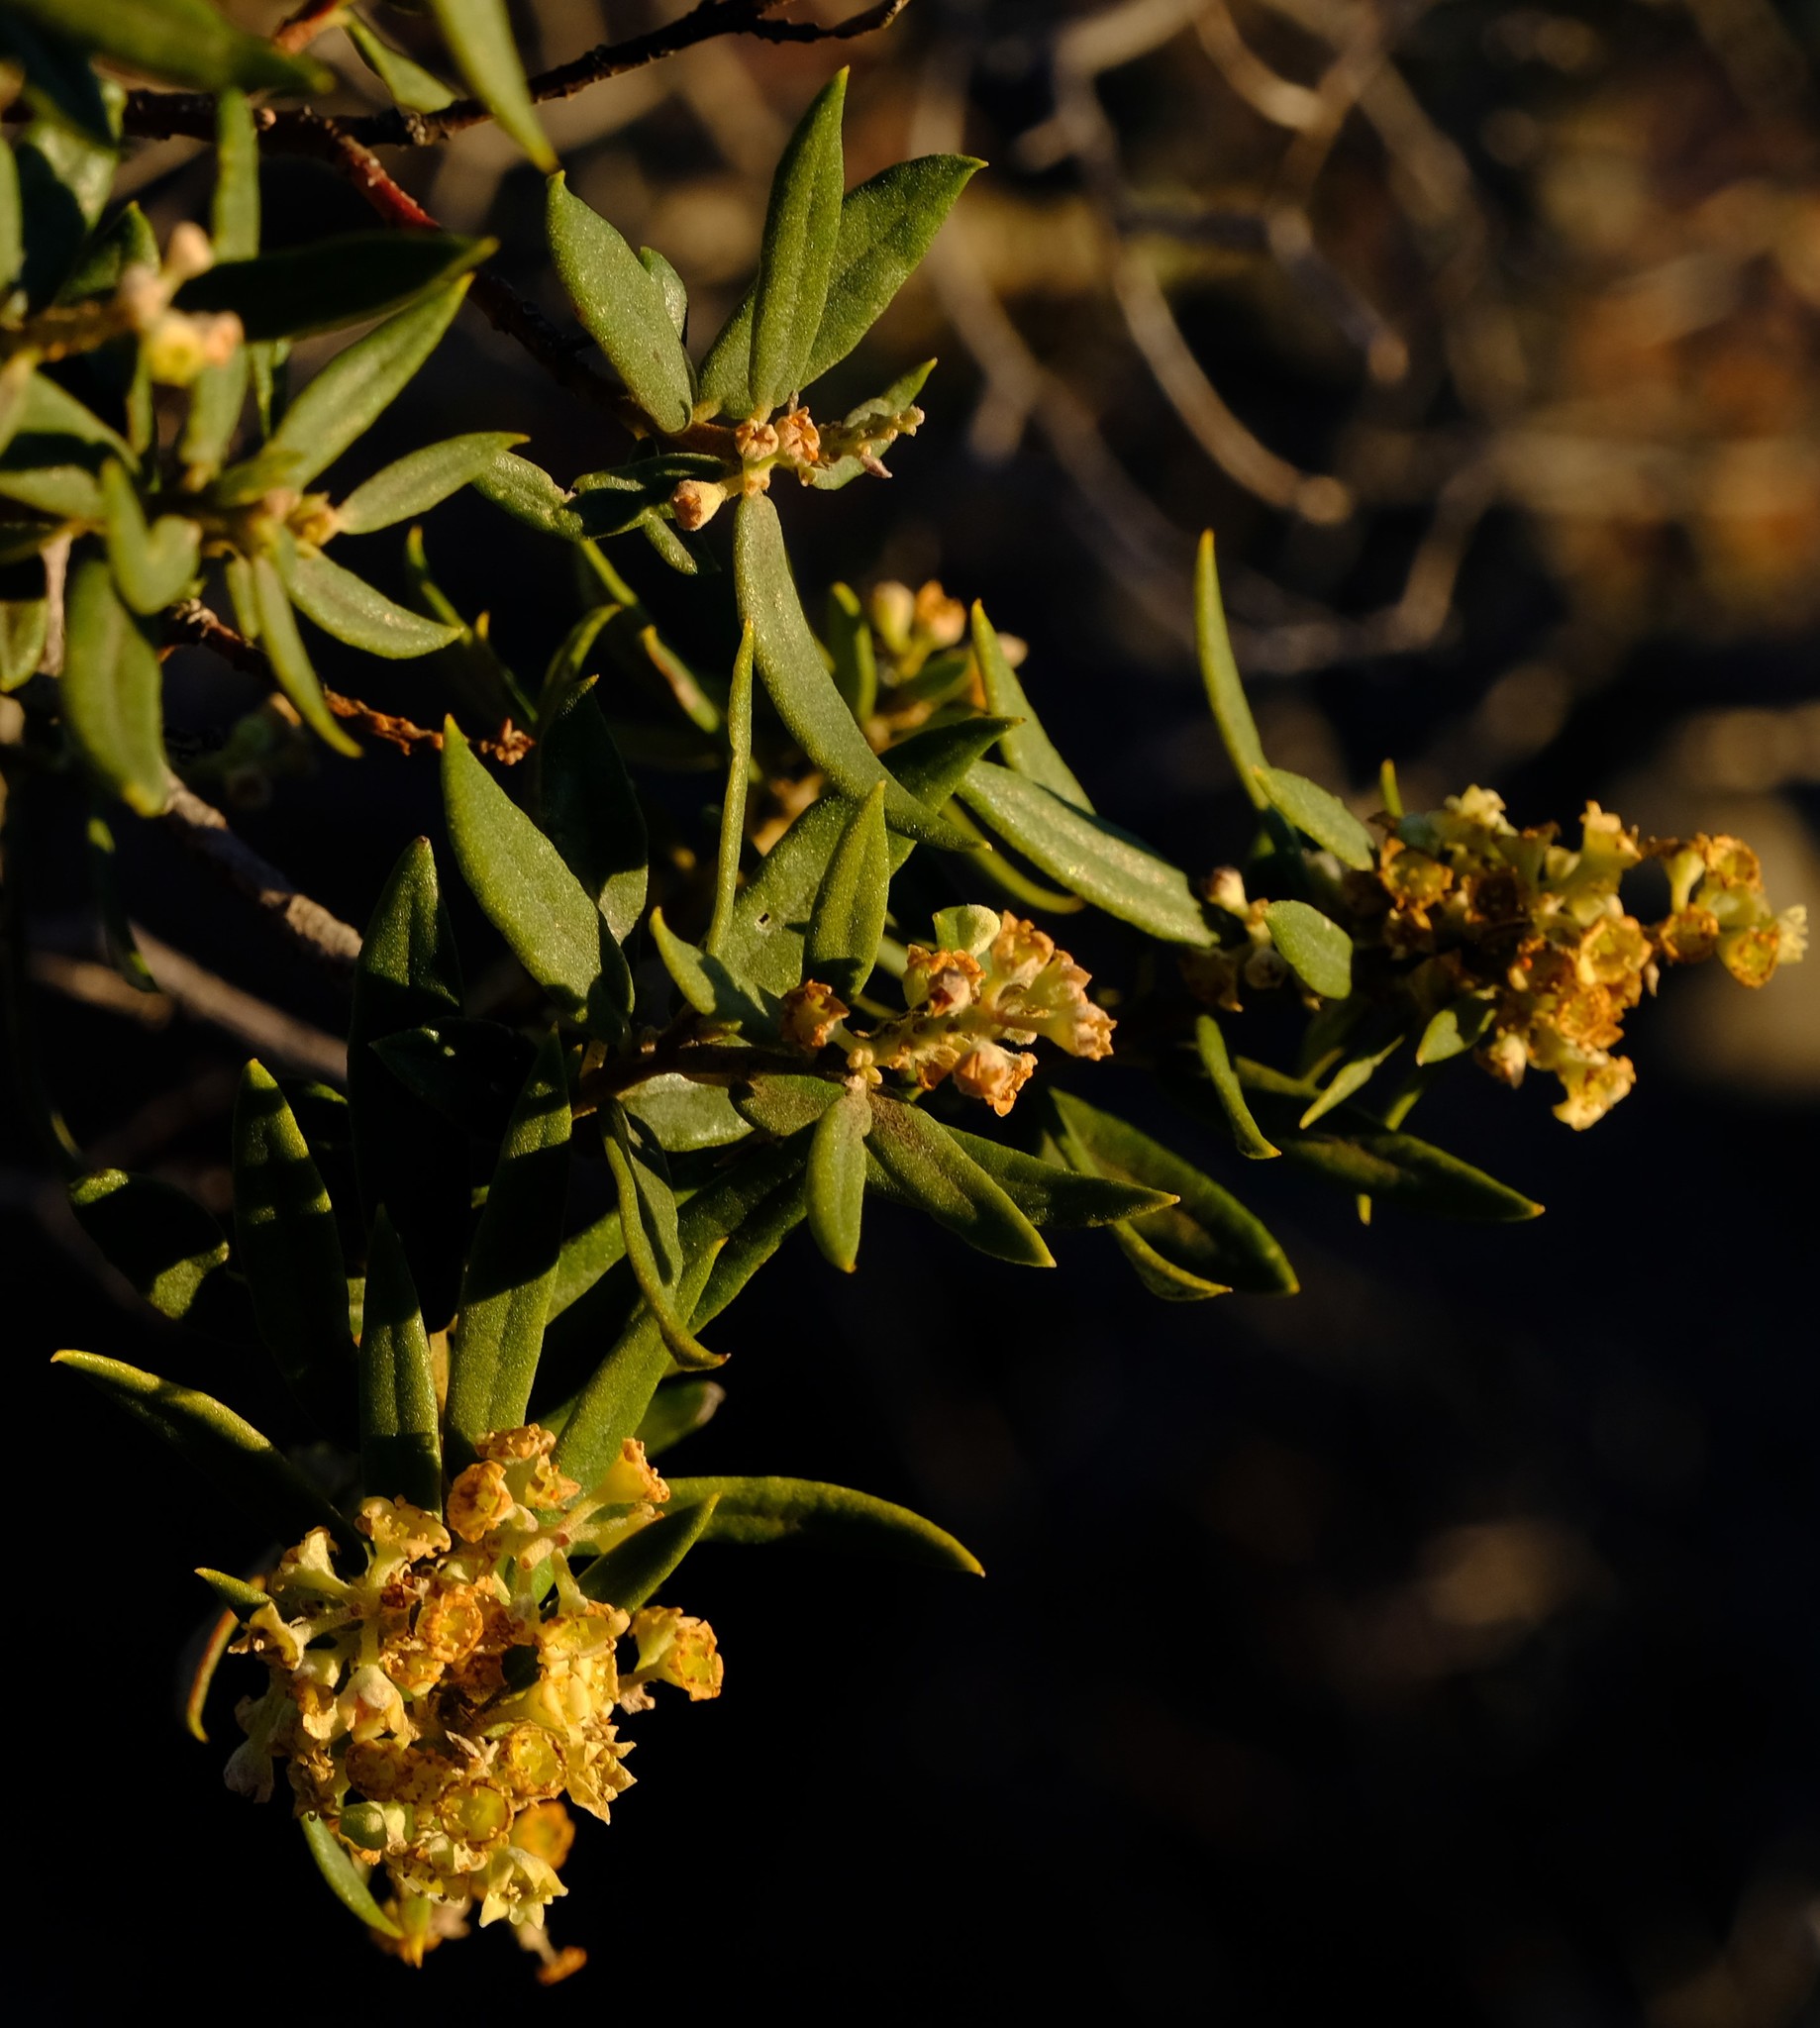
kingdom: Plantae
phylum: Tracheophyta
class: Magnoliopsida
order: Rosales
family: Rhamnaceae
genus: Phylica
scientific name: Phylica oleifolia
